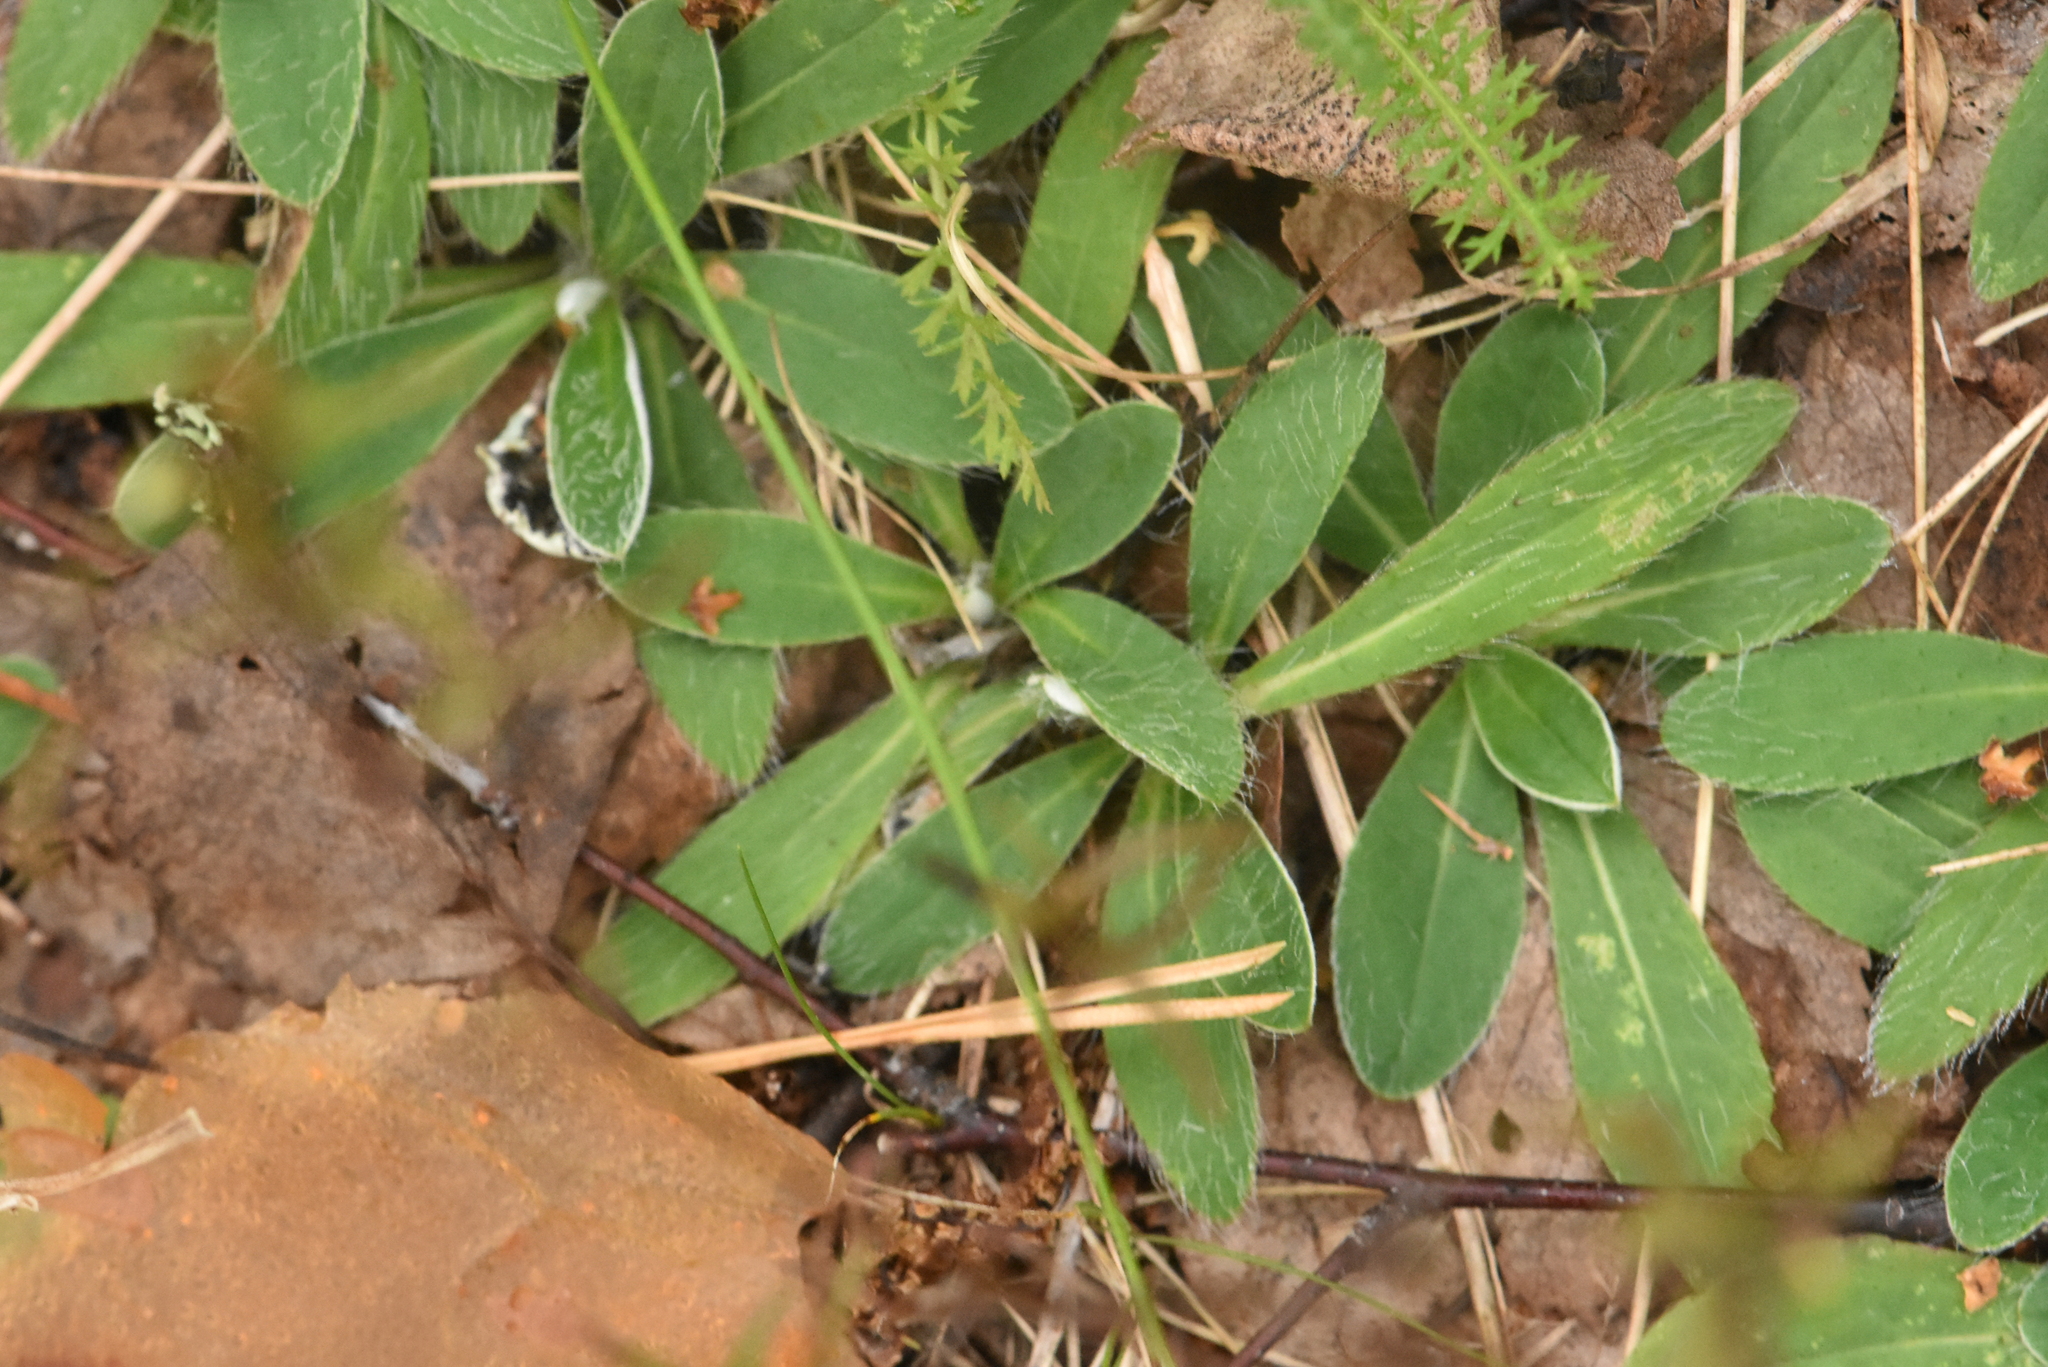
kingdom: Plantae
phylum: Tracheophyta
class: Magnoliopsida
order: Asterales
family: Asteraceae
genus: Pilosella
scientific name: Pilosella officinarum
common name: Mouse-ear hawkweed
